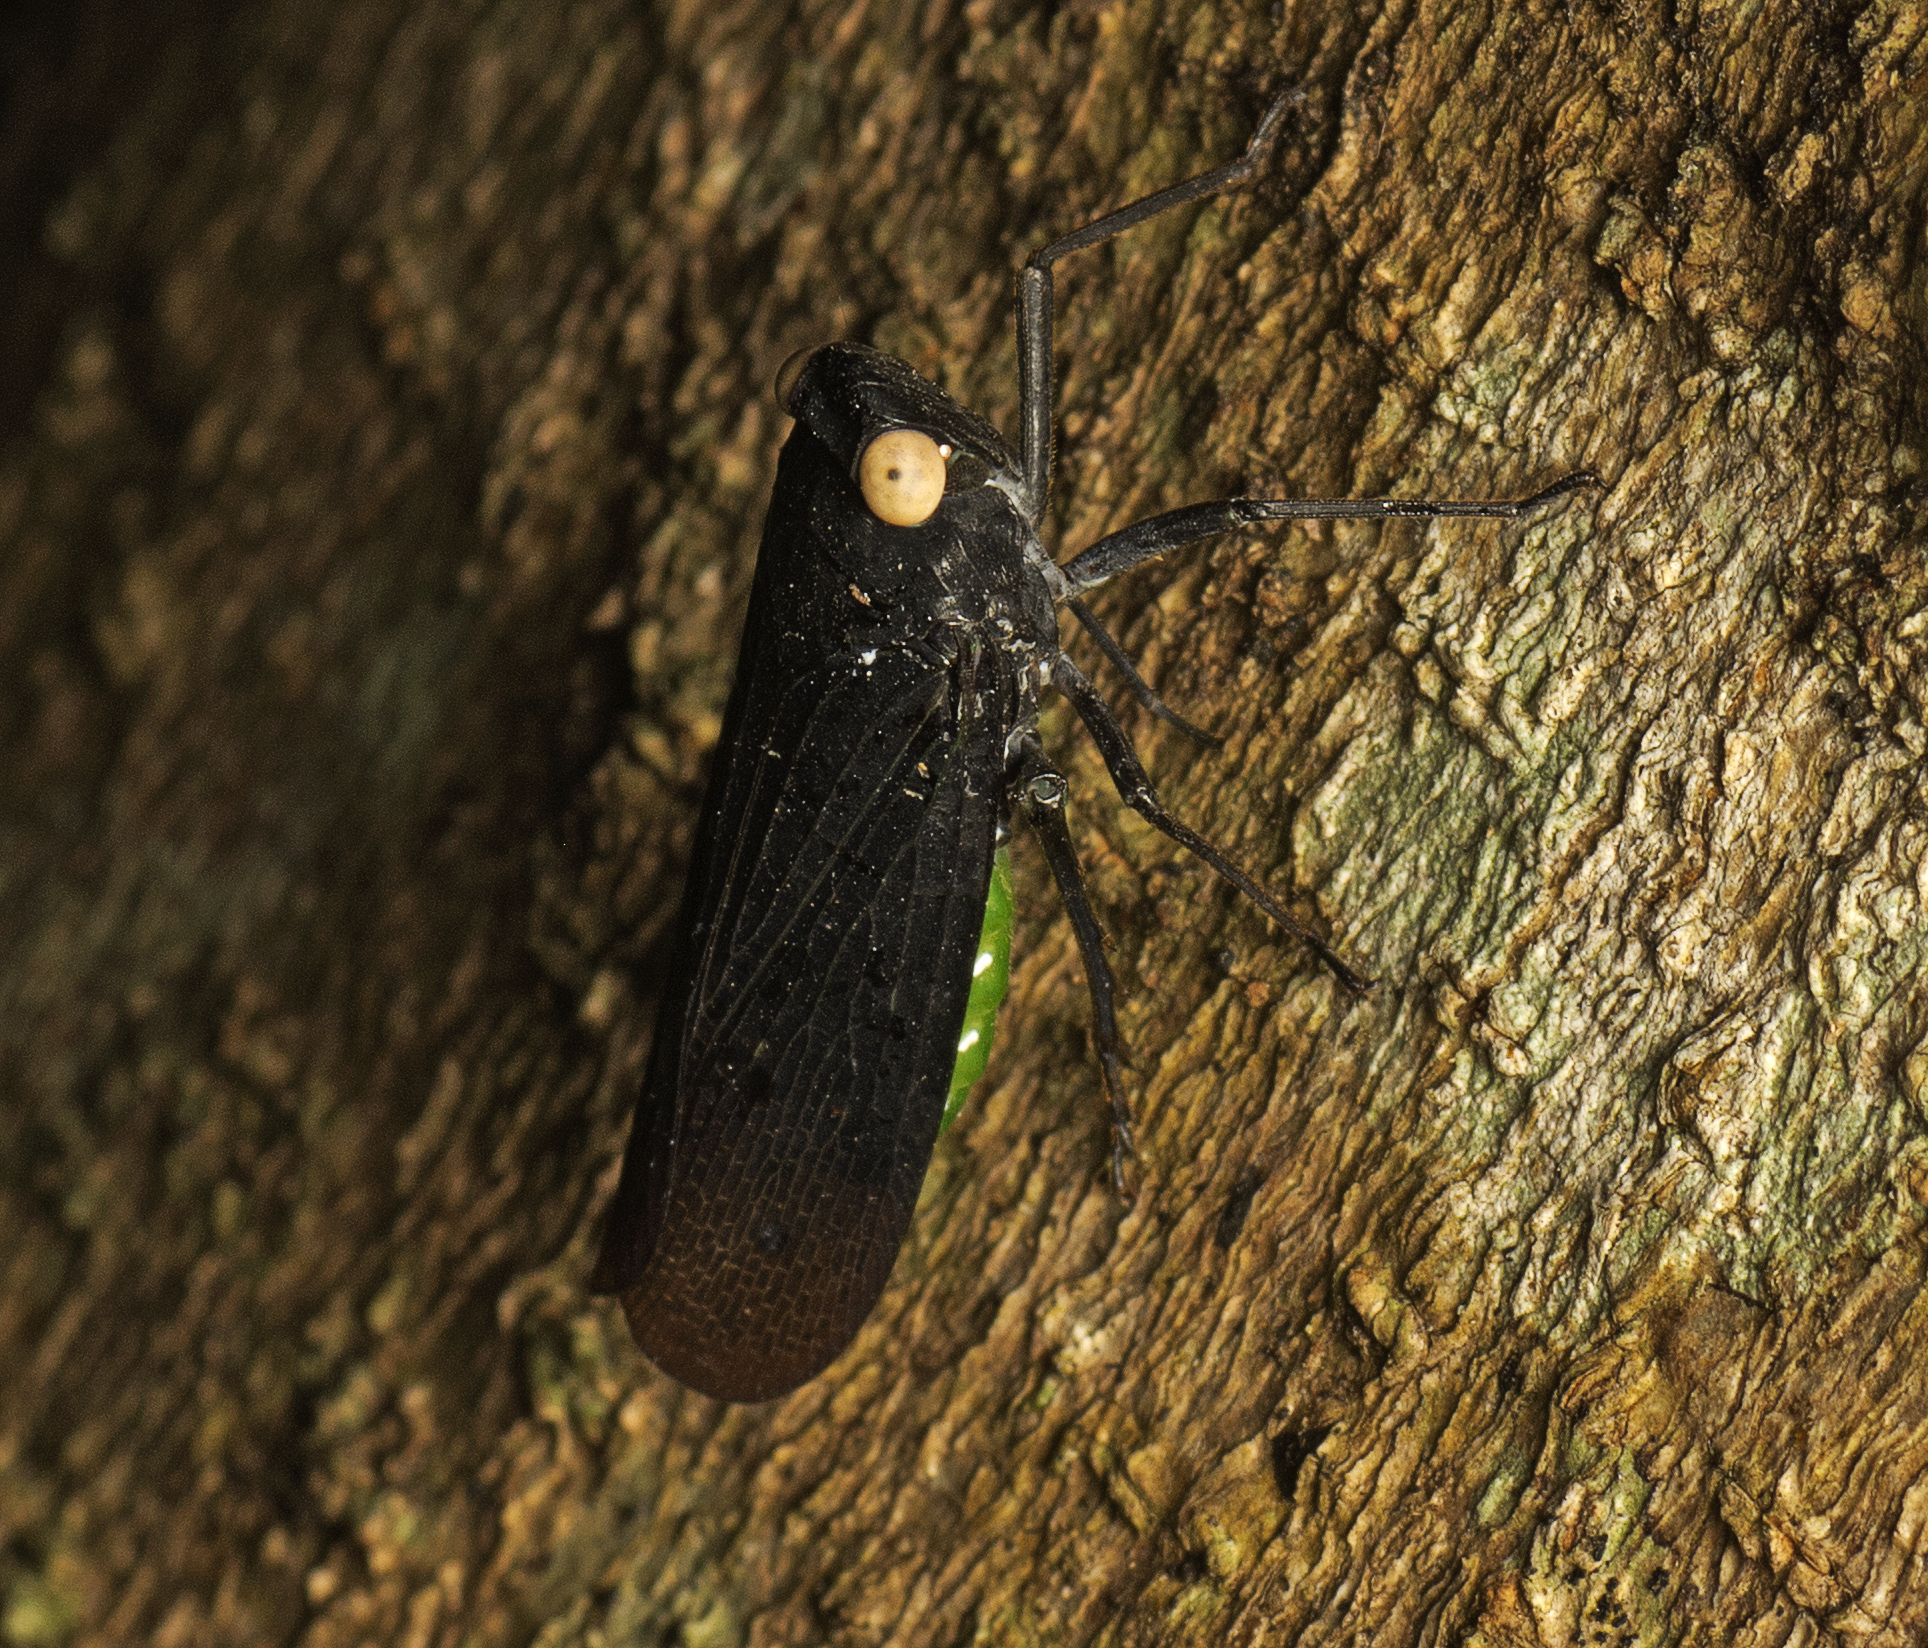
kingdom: Animalia
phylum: Arthropoda
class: Insecta
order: Hemiptera
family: Fulgoridae
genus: Desudaba
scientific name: Desudaba psittacus
